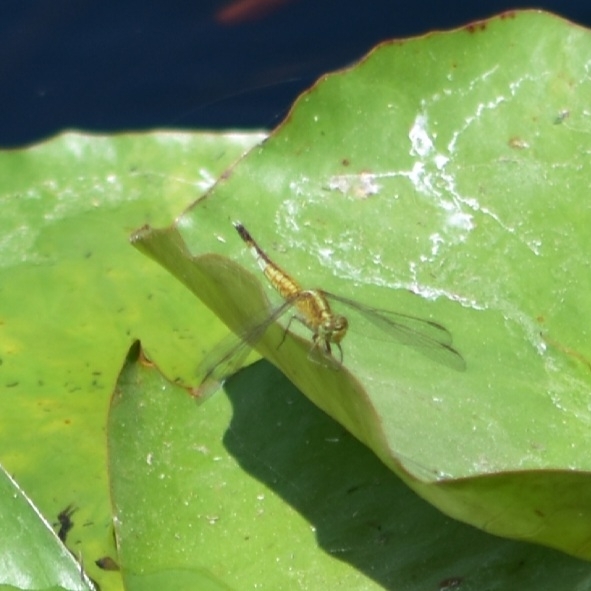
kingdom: Animalia
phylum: Arthropoda
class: Insecta
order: Odonata
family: Libellulidae
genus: Acisoma
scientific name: Acisoma panorpoides
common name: Asian pintail
